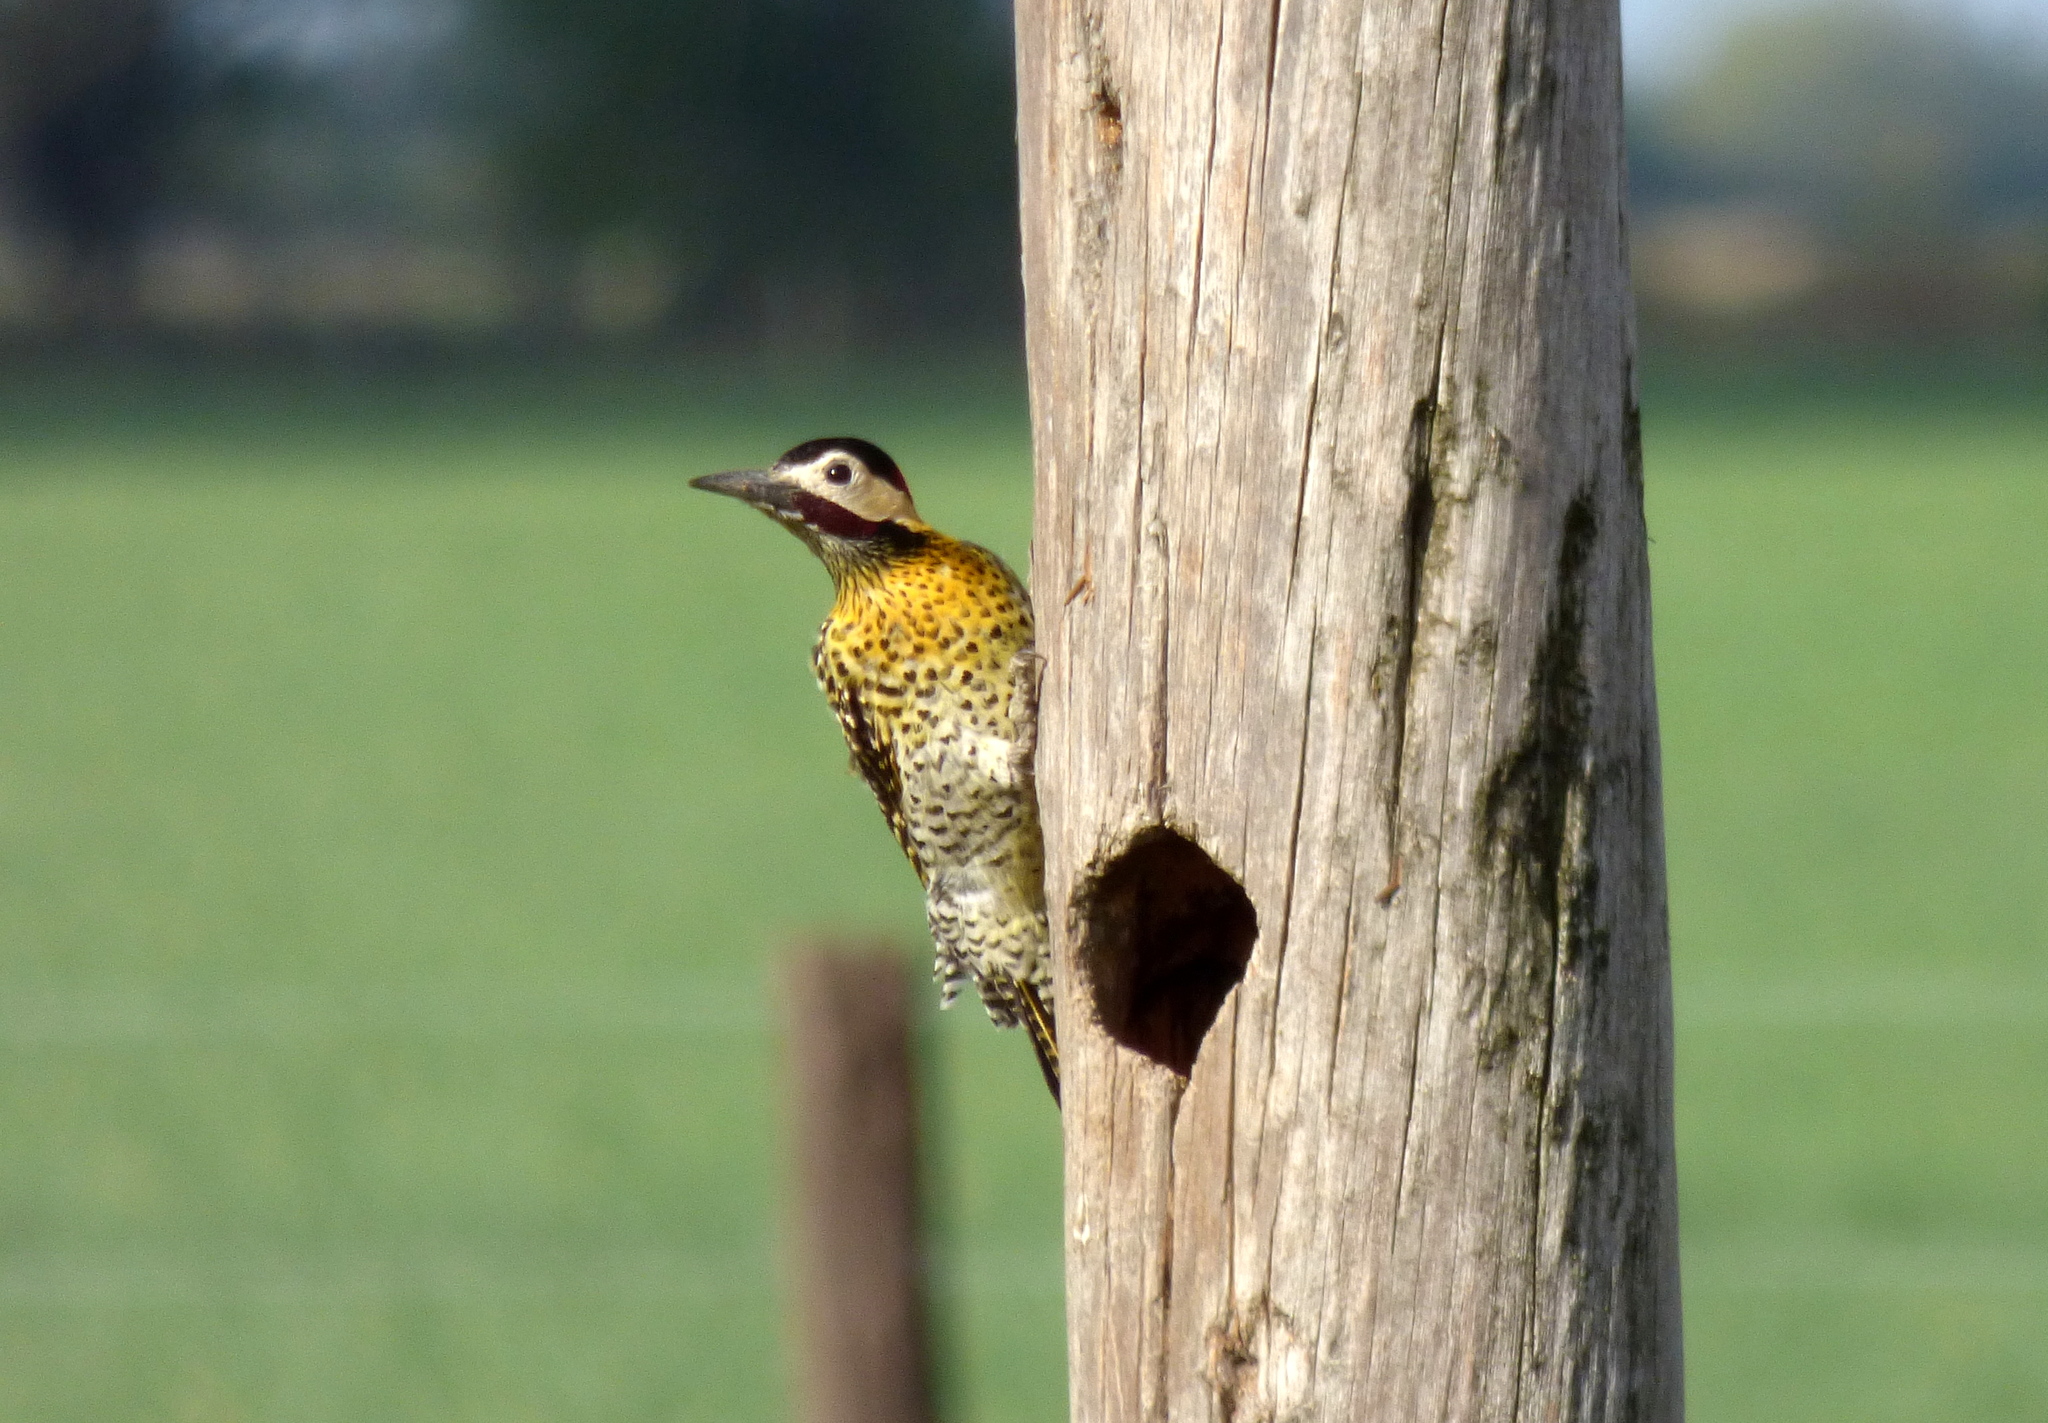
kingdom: Animalia
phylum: Chordata
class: Aves
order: Piciformes
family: Picidae
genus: Colaptes
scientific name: Colaptes melanochloros
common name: Green-barred woodpecker
